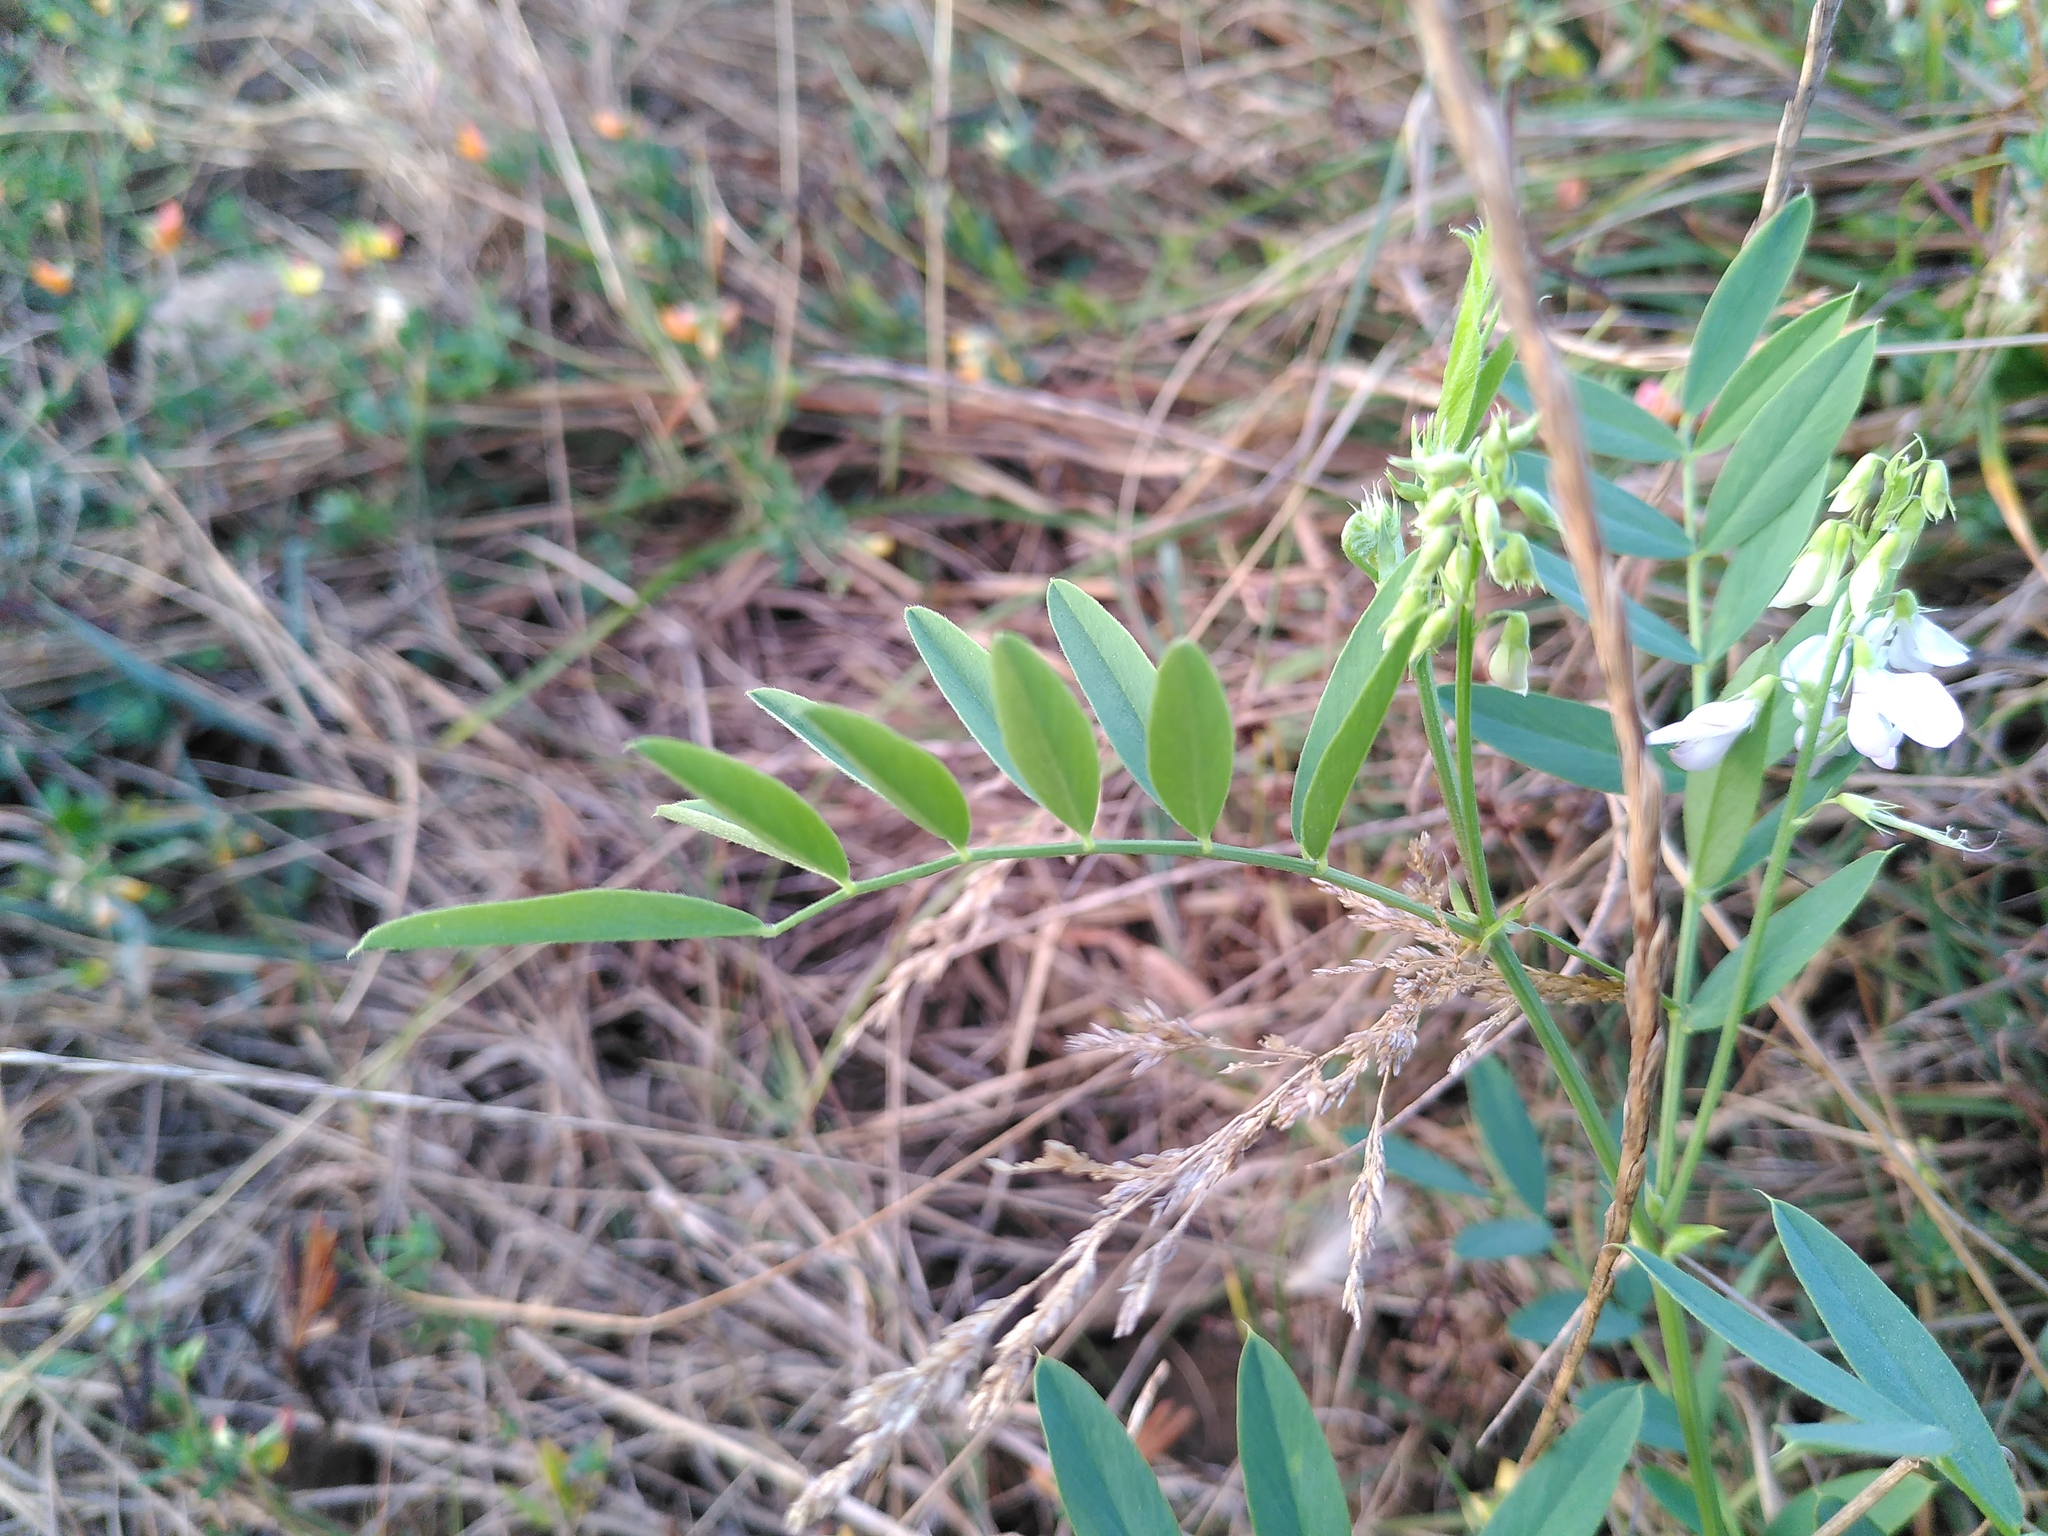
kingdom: Plantae
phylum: Tracheophyta
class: Magnoliopsida
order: Fabales
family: Fabaceae
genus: Galega
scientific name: Galega officinalis
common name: Goat's-rue
